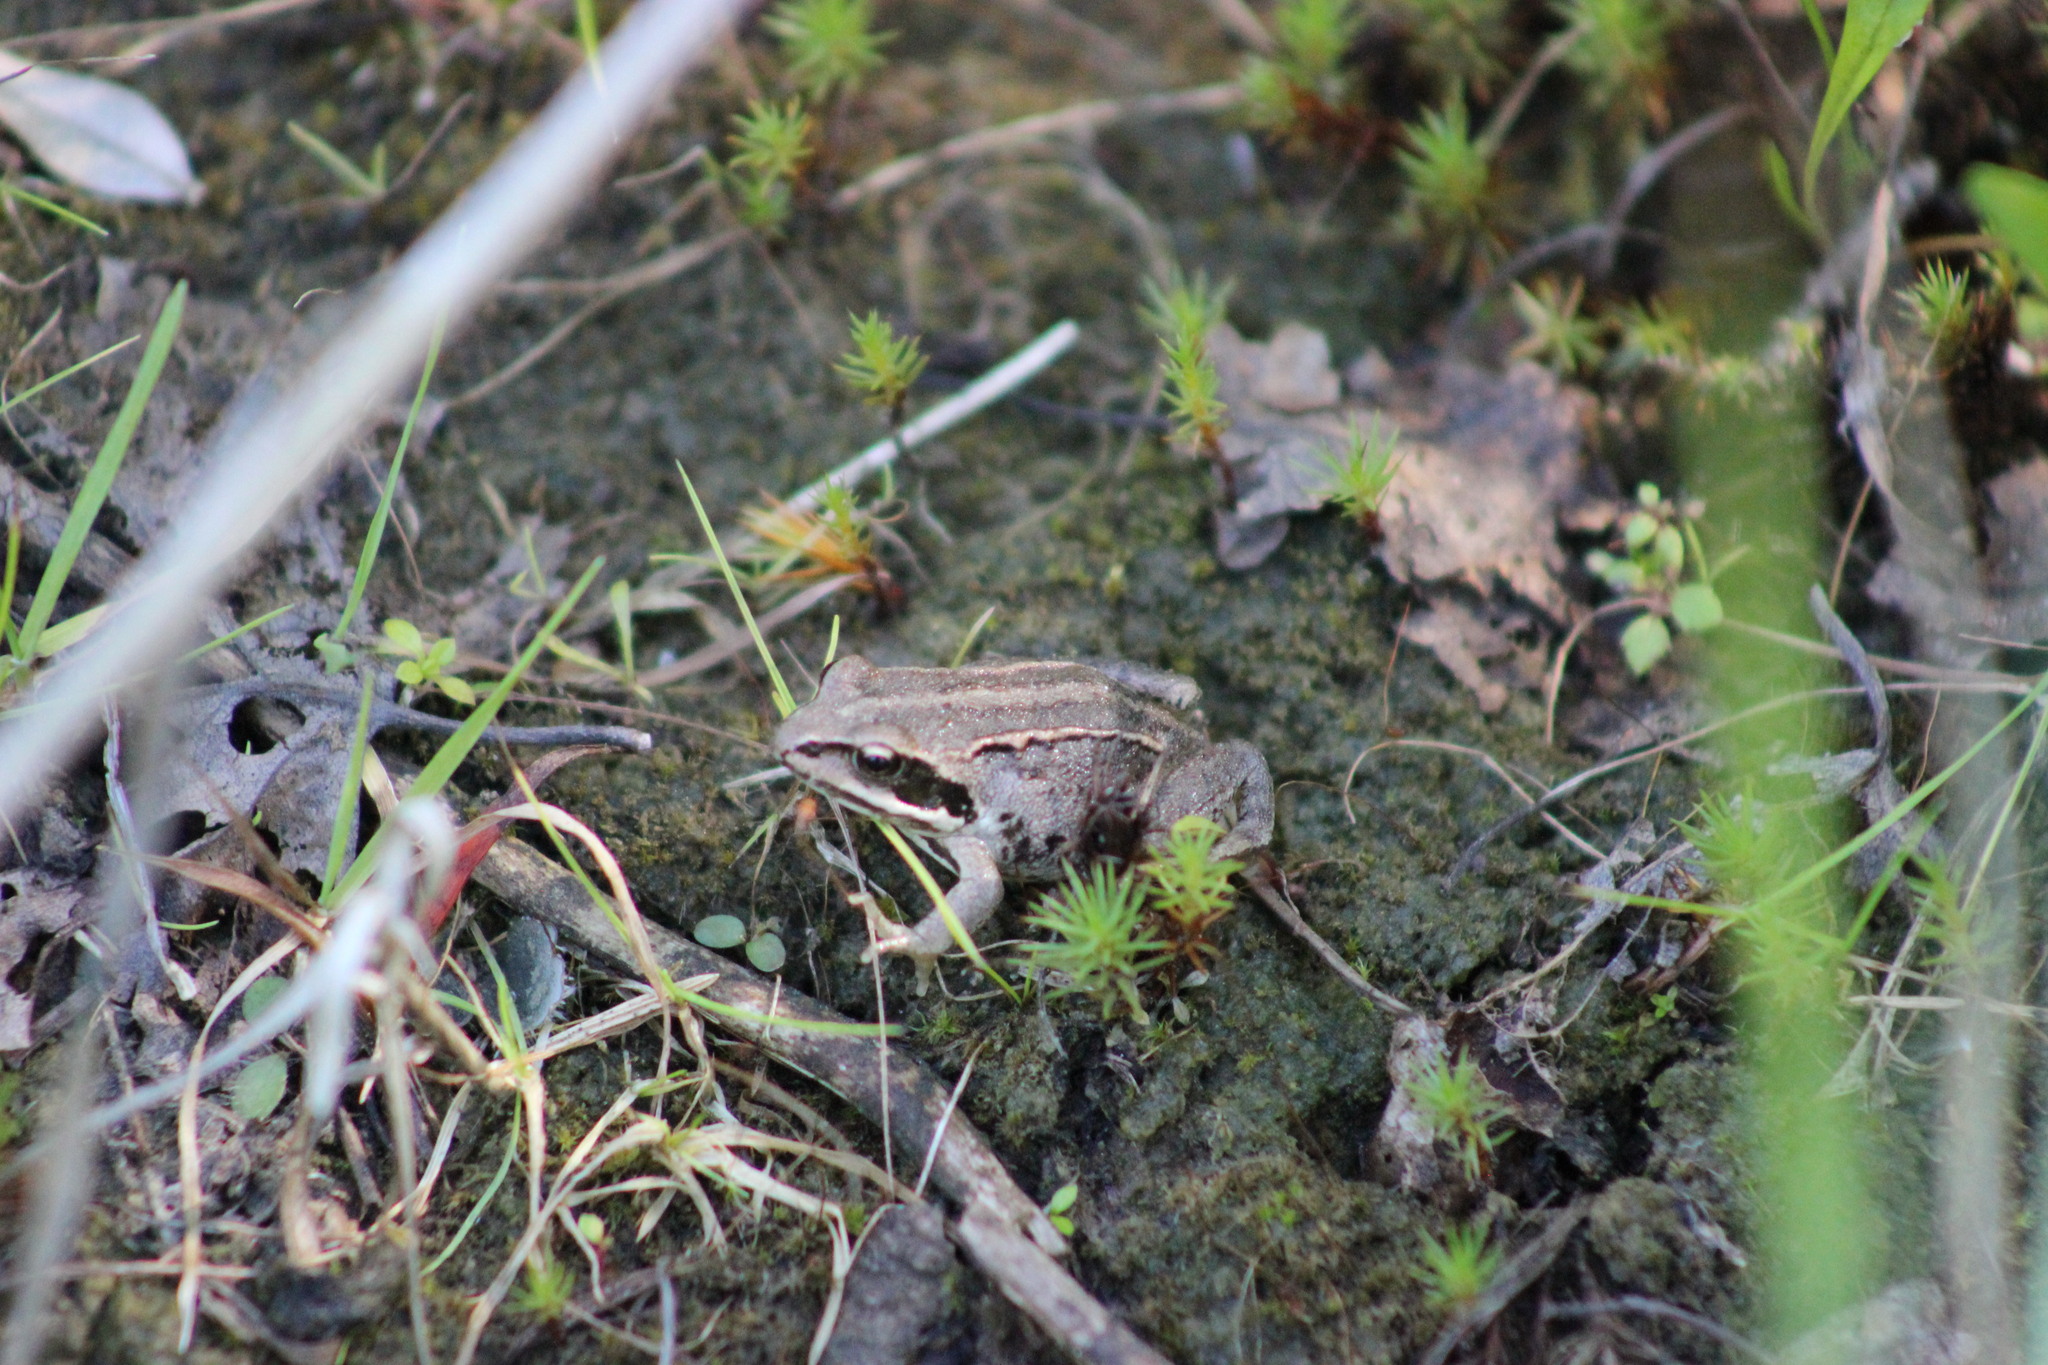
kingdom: Animalia
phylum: Chordata
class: Amphibia
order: Anura
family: Ranidae
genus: Rana
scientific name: Rana arvalis
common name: Moor frog
